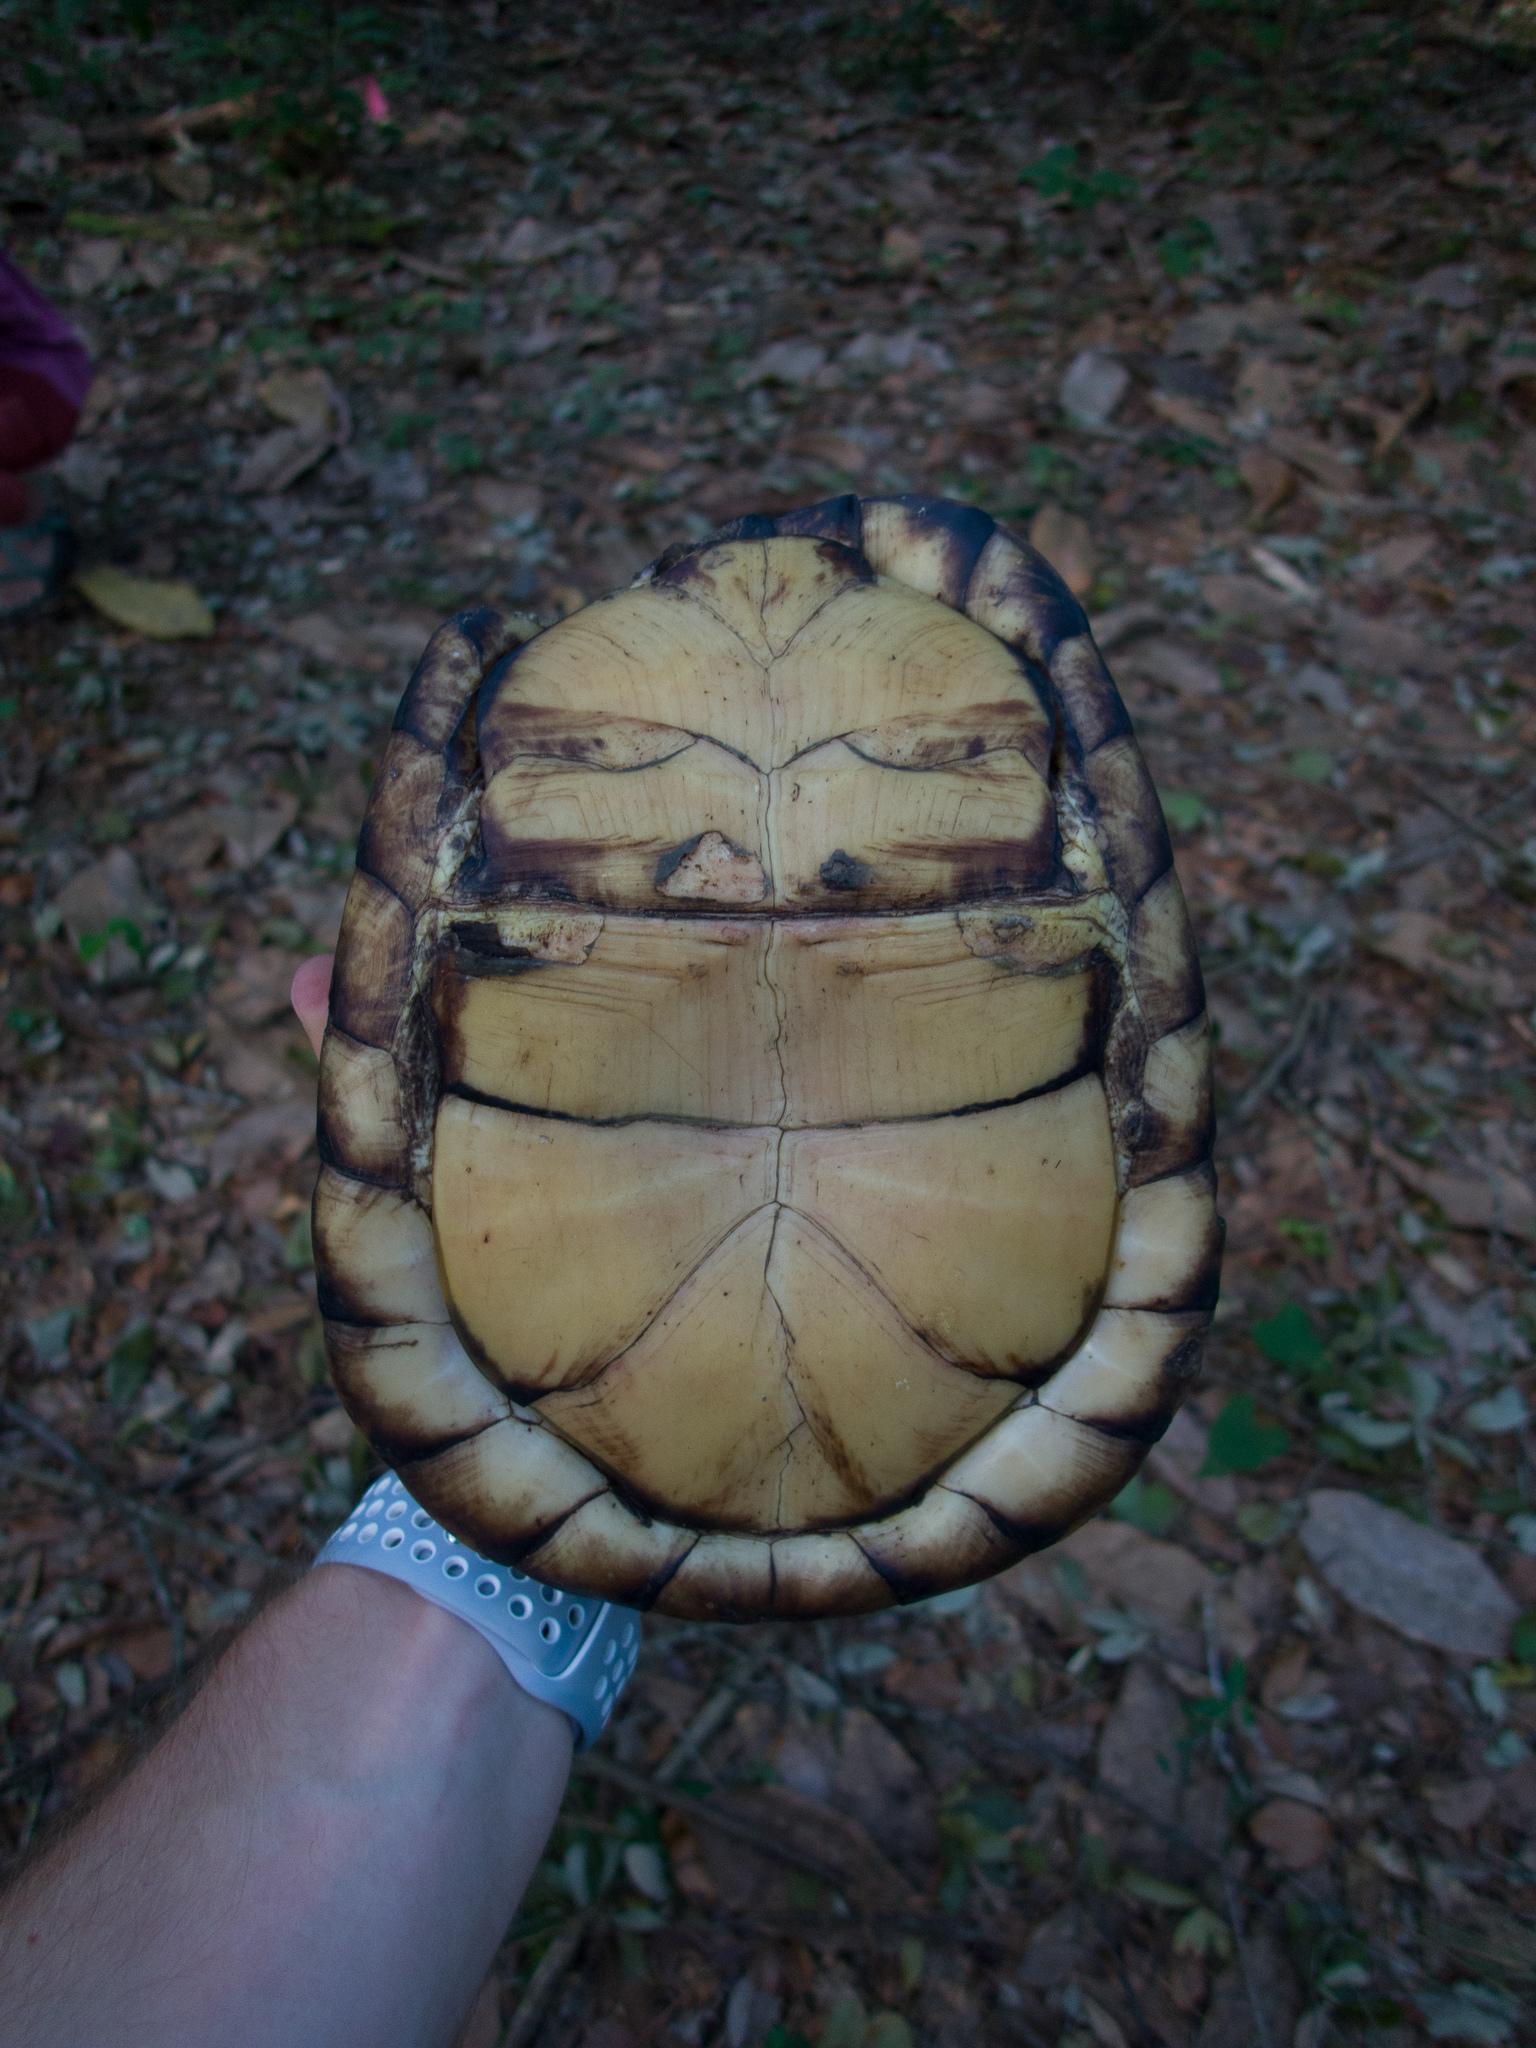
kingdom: Animalia
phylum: Chordata
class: Testudines
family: Emydidae
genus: Terrapene
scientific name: Terrapene carolina
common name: Common box turtle
